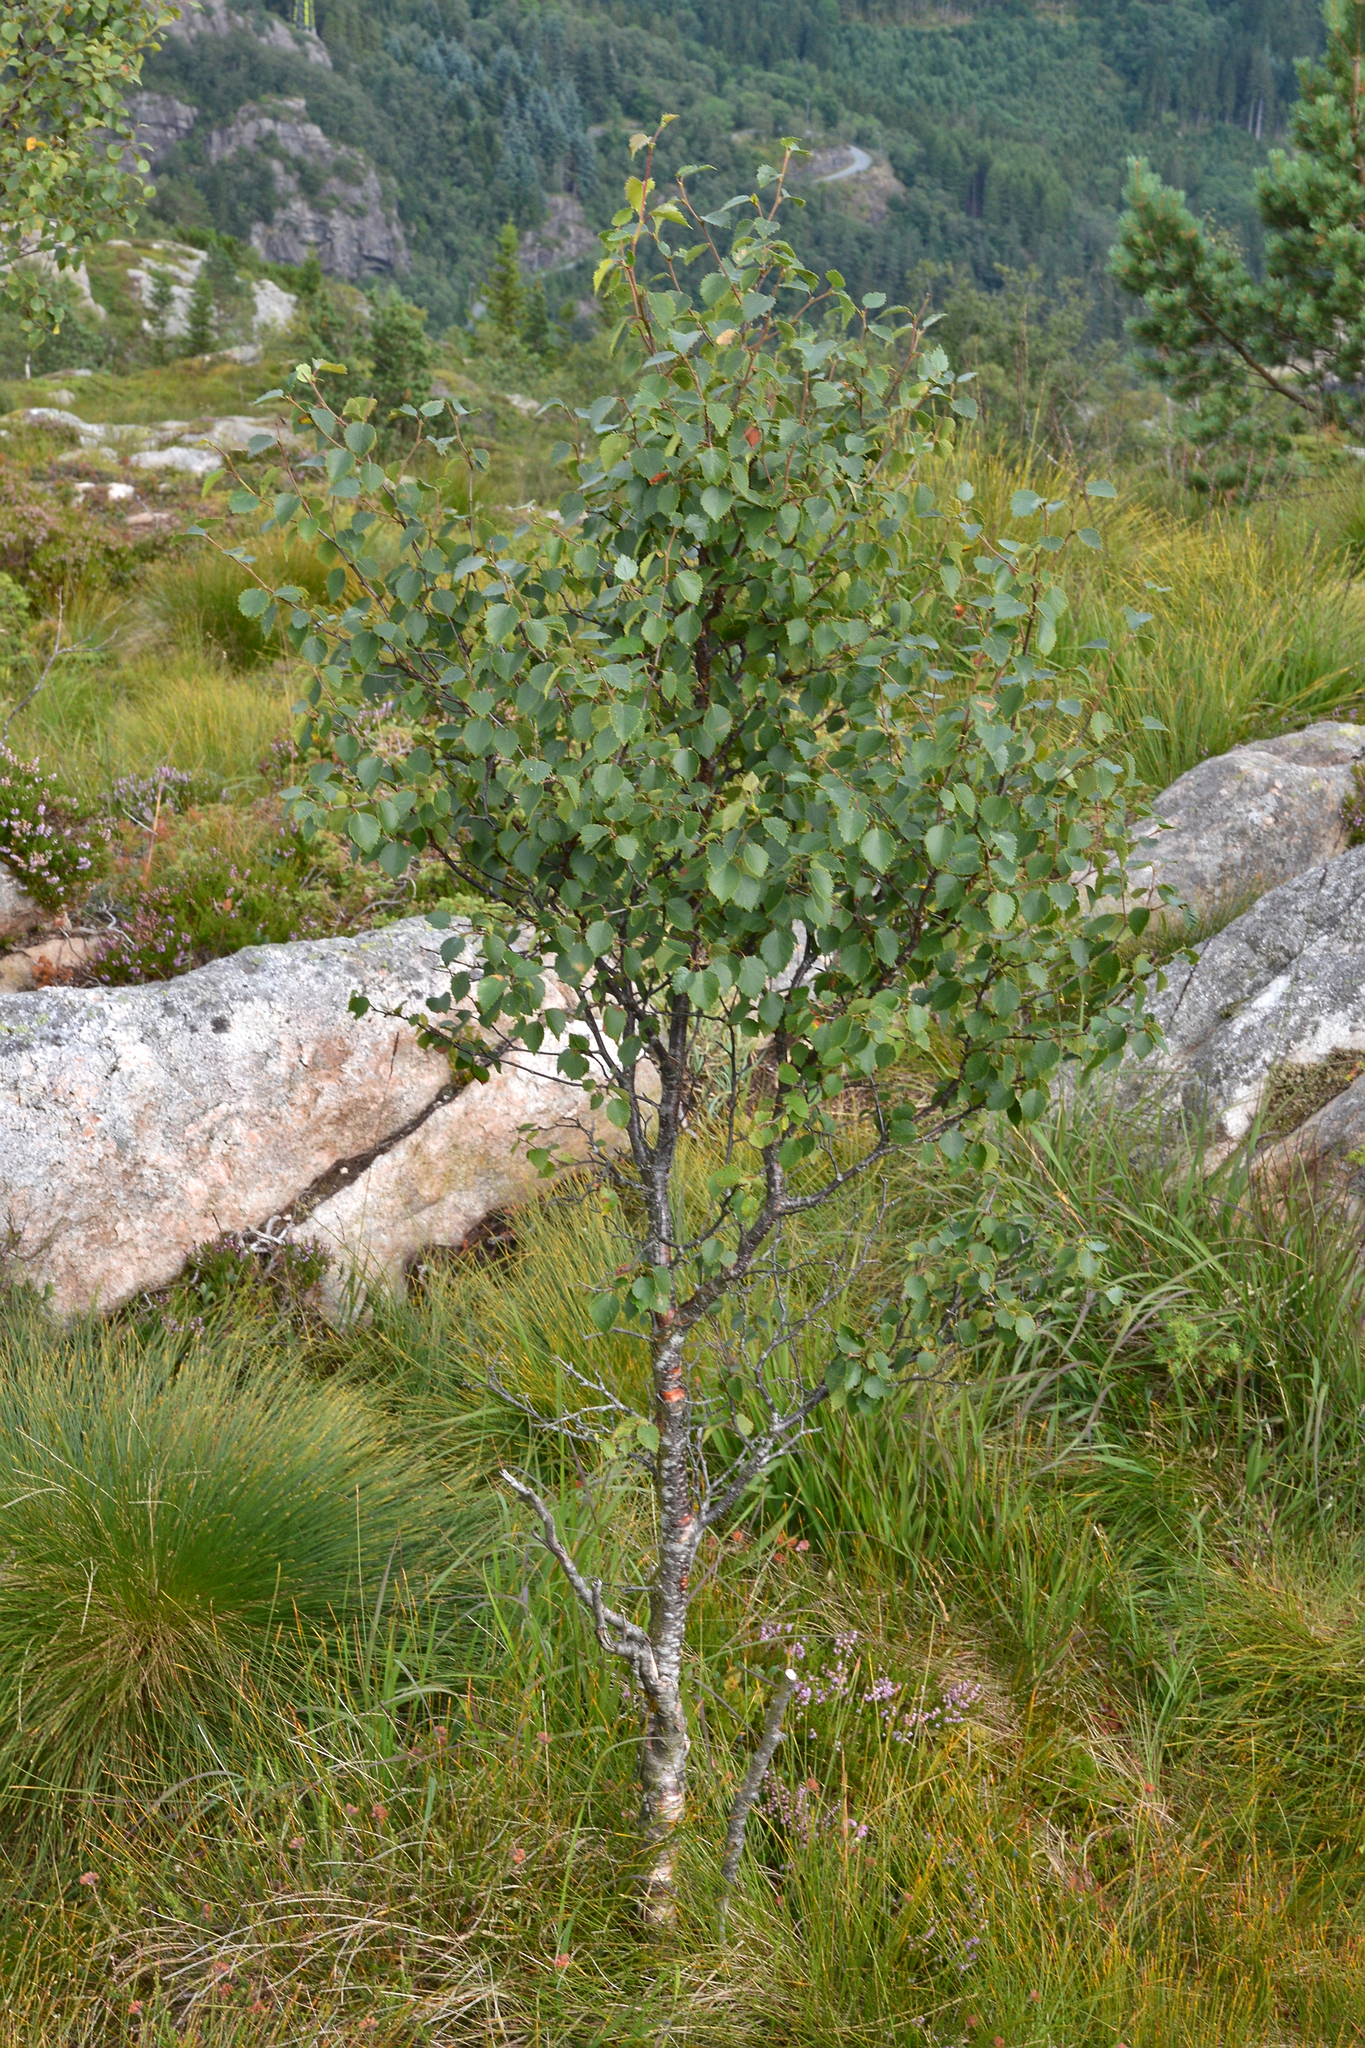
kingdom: Plantae
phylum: Tracheophyta
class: Magnoliopsida
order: Fagales
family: Betulaceae
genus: Betula
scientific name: Betula pubescens
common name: Downy birch
